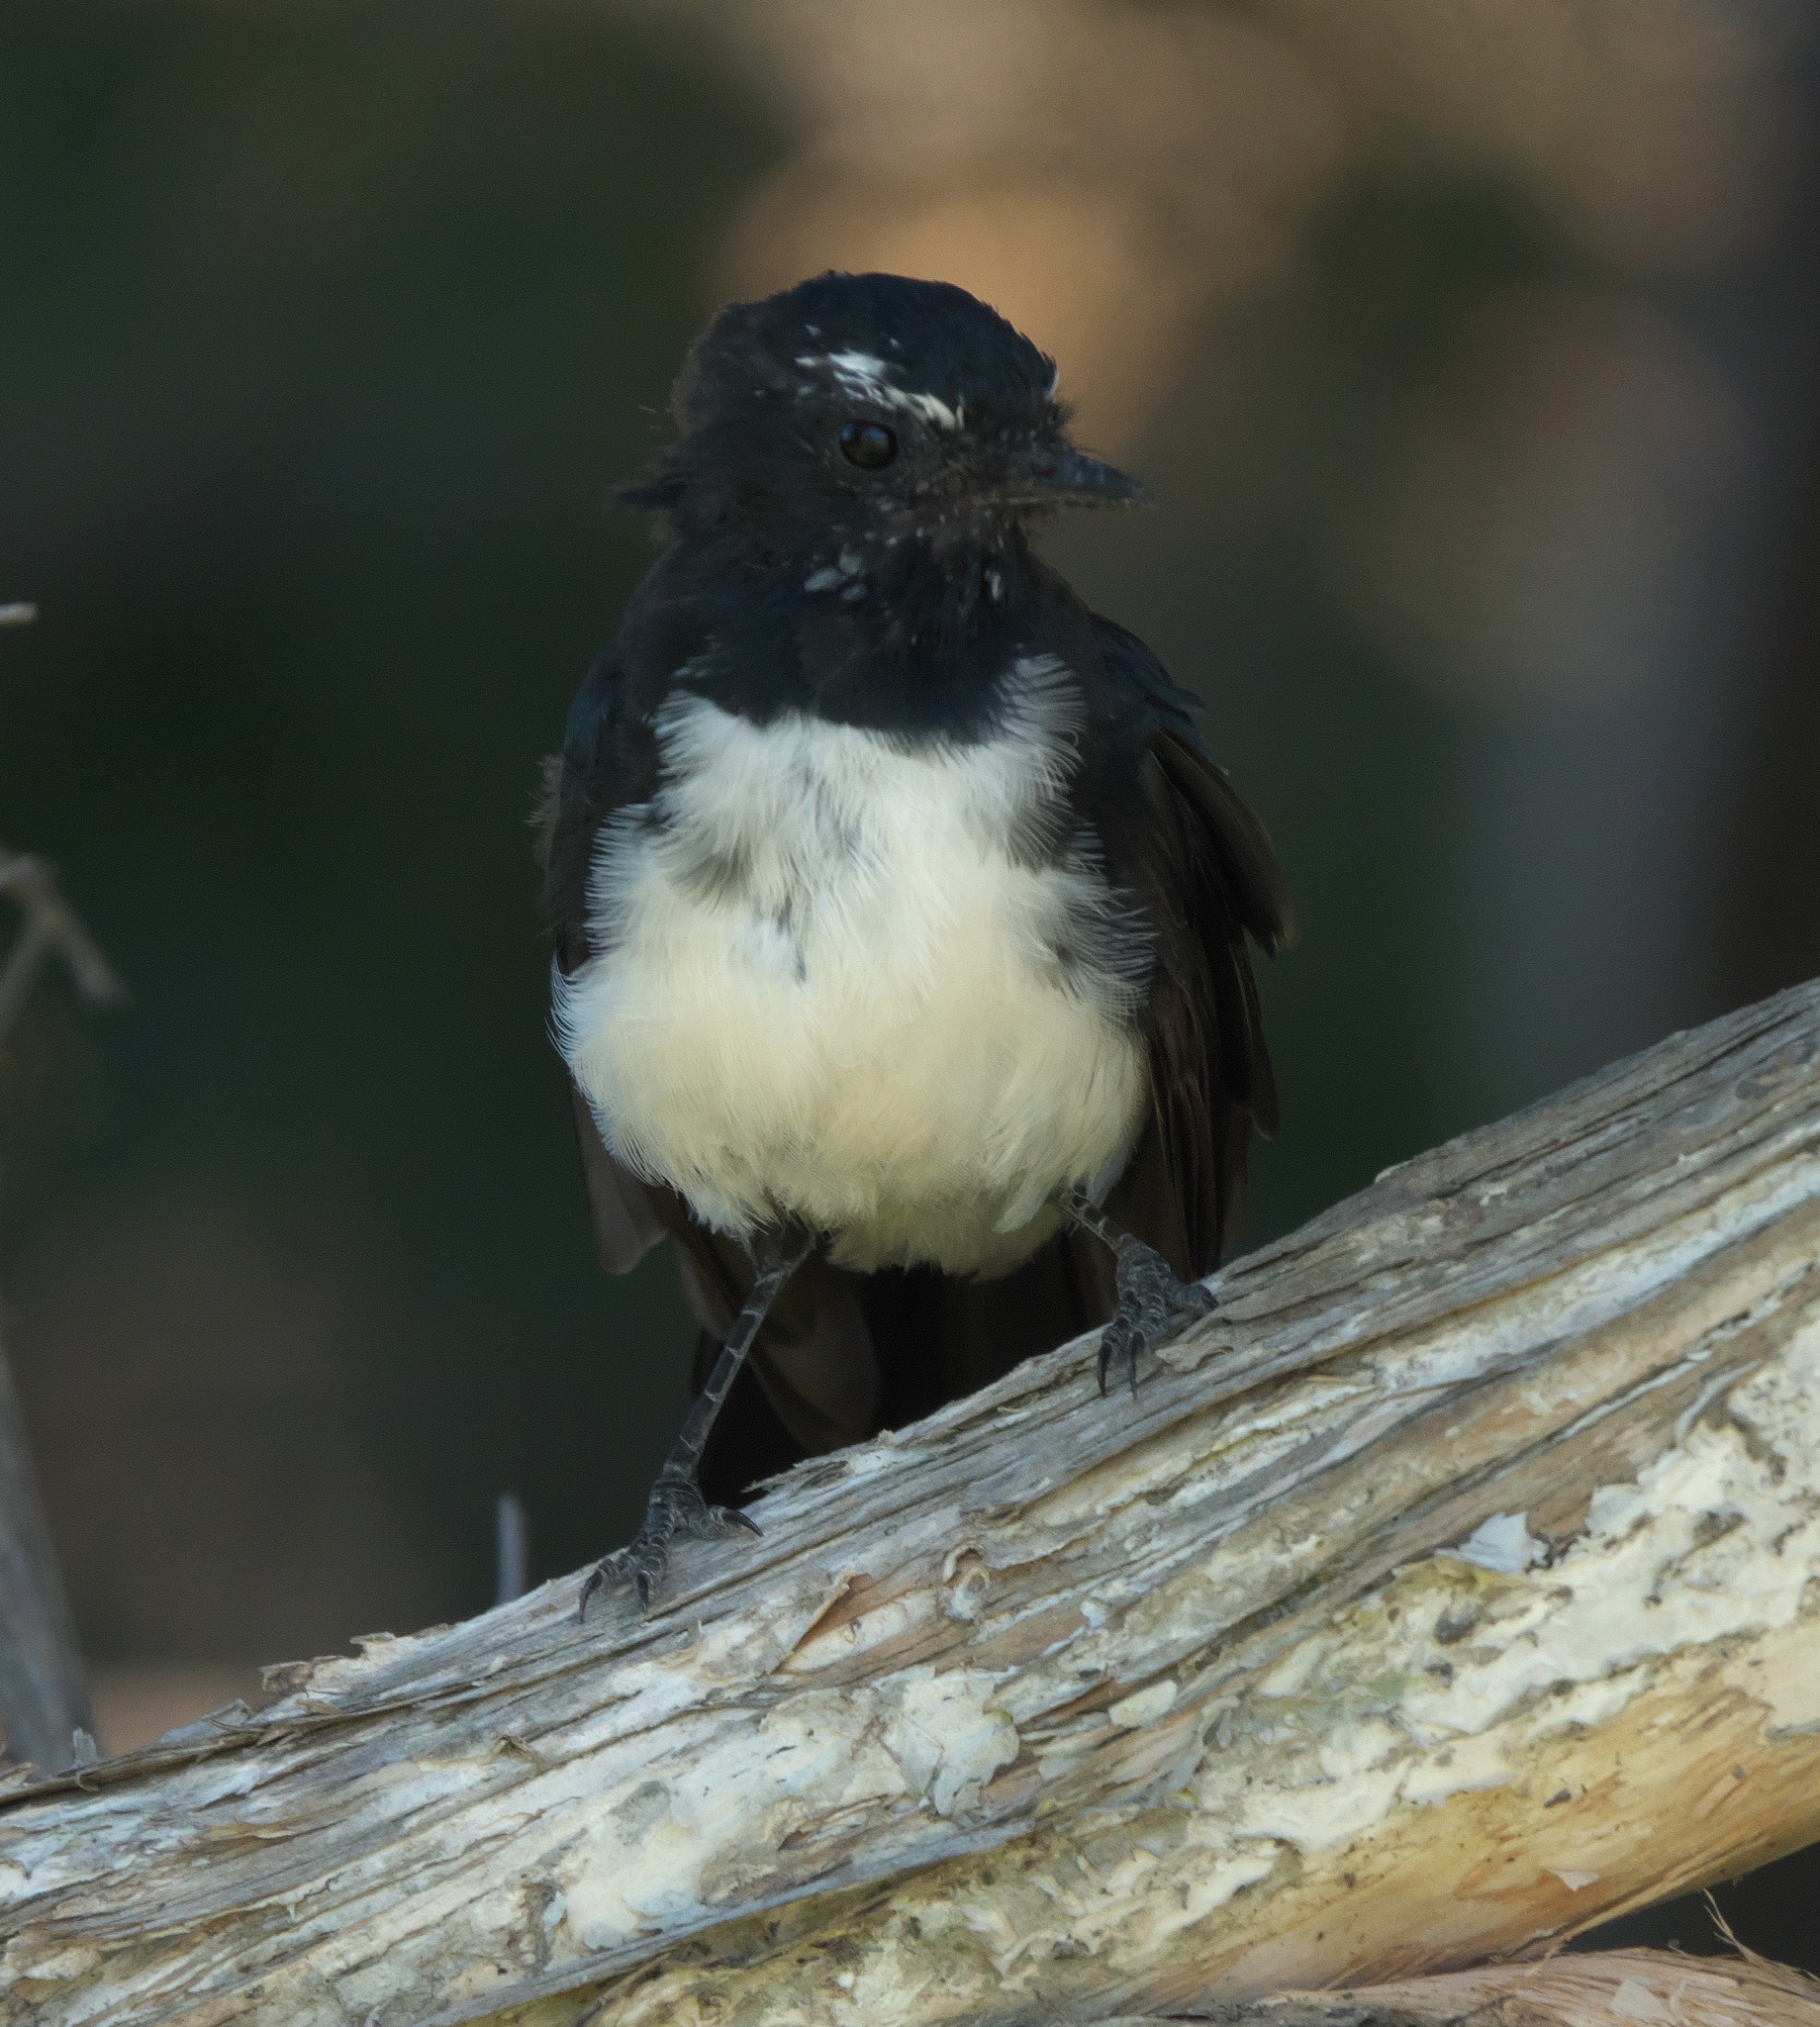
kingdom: Animalia
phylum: Chordata
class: Aves
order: Passeriformes
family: Rhipiduridae
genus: Rhipidura
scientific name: Rhipidura leucophrys
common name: Willie wagtail
